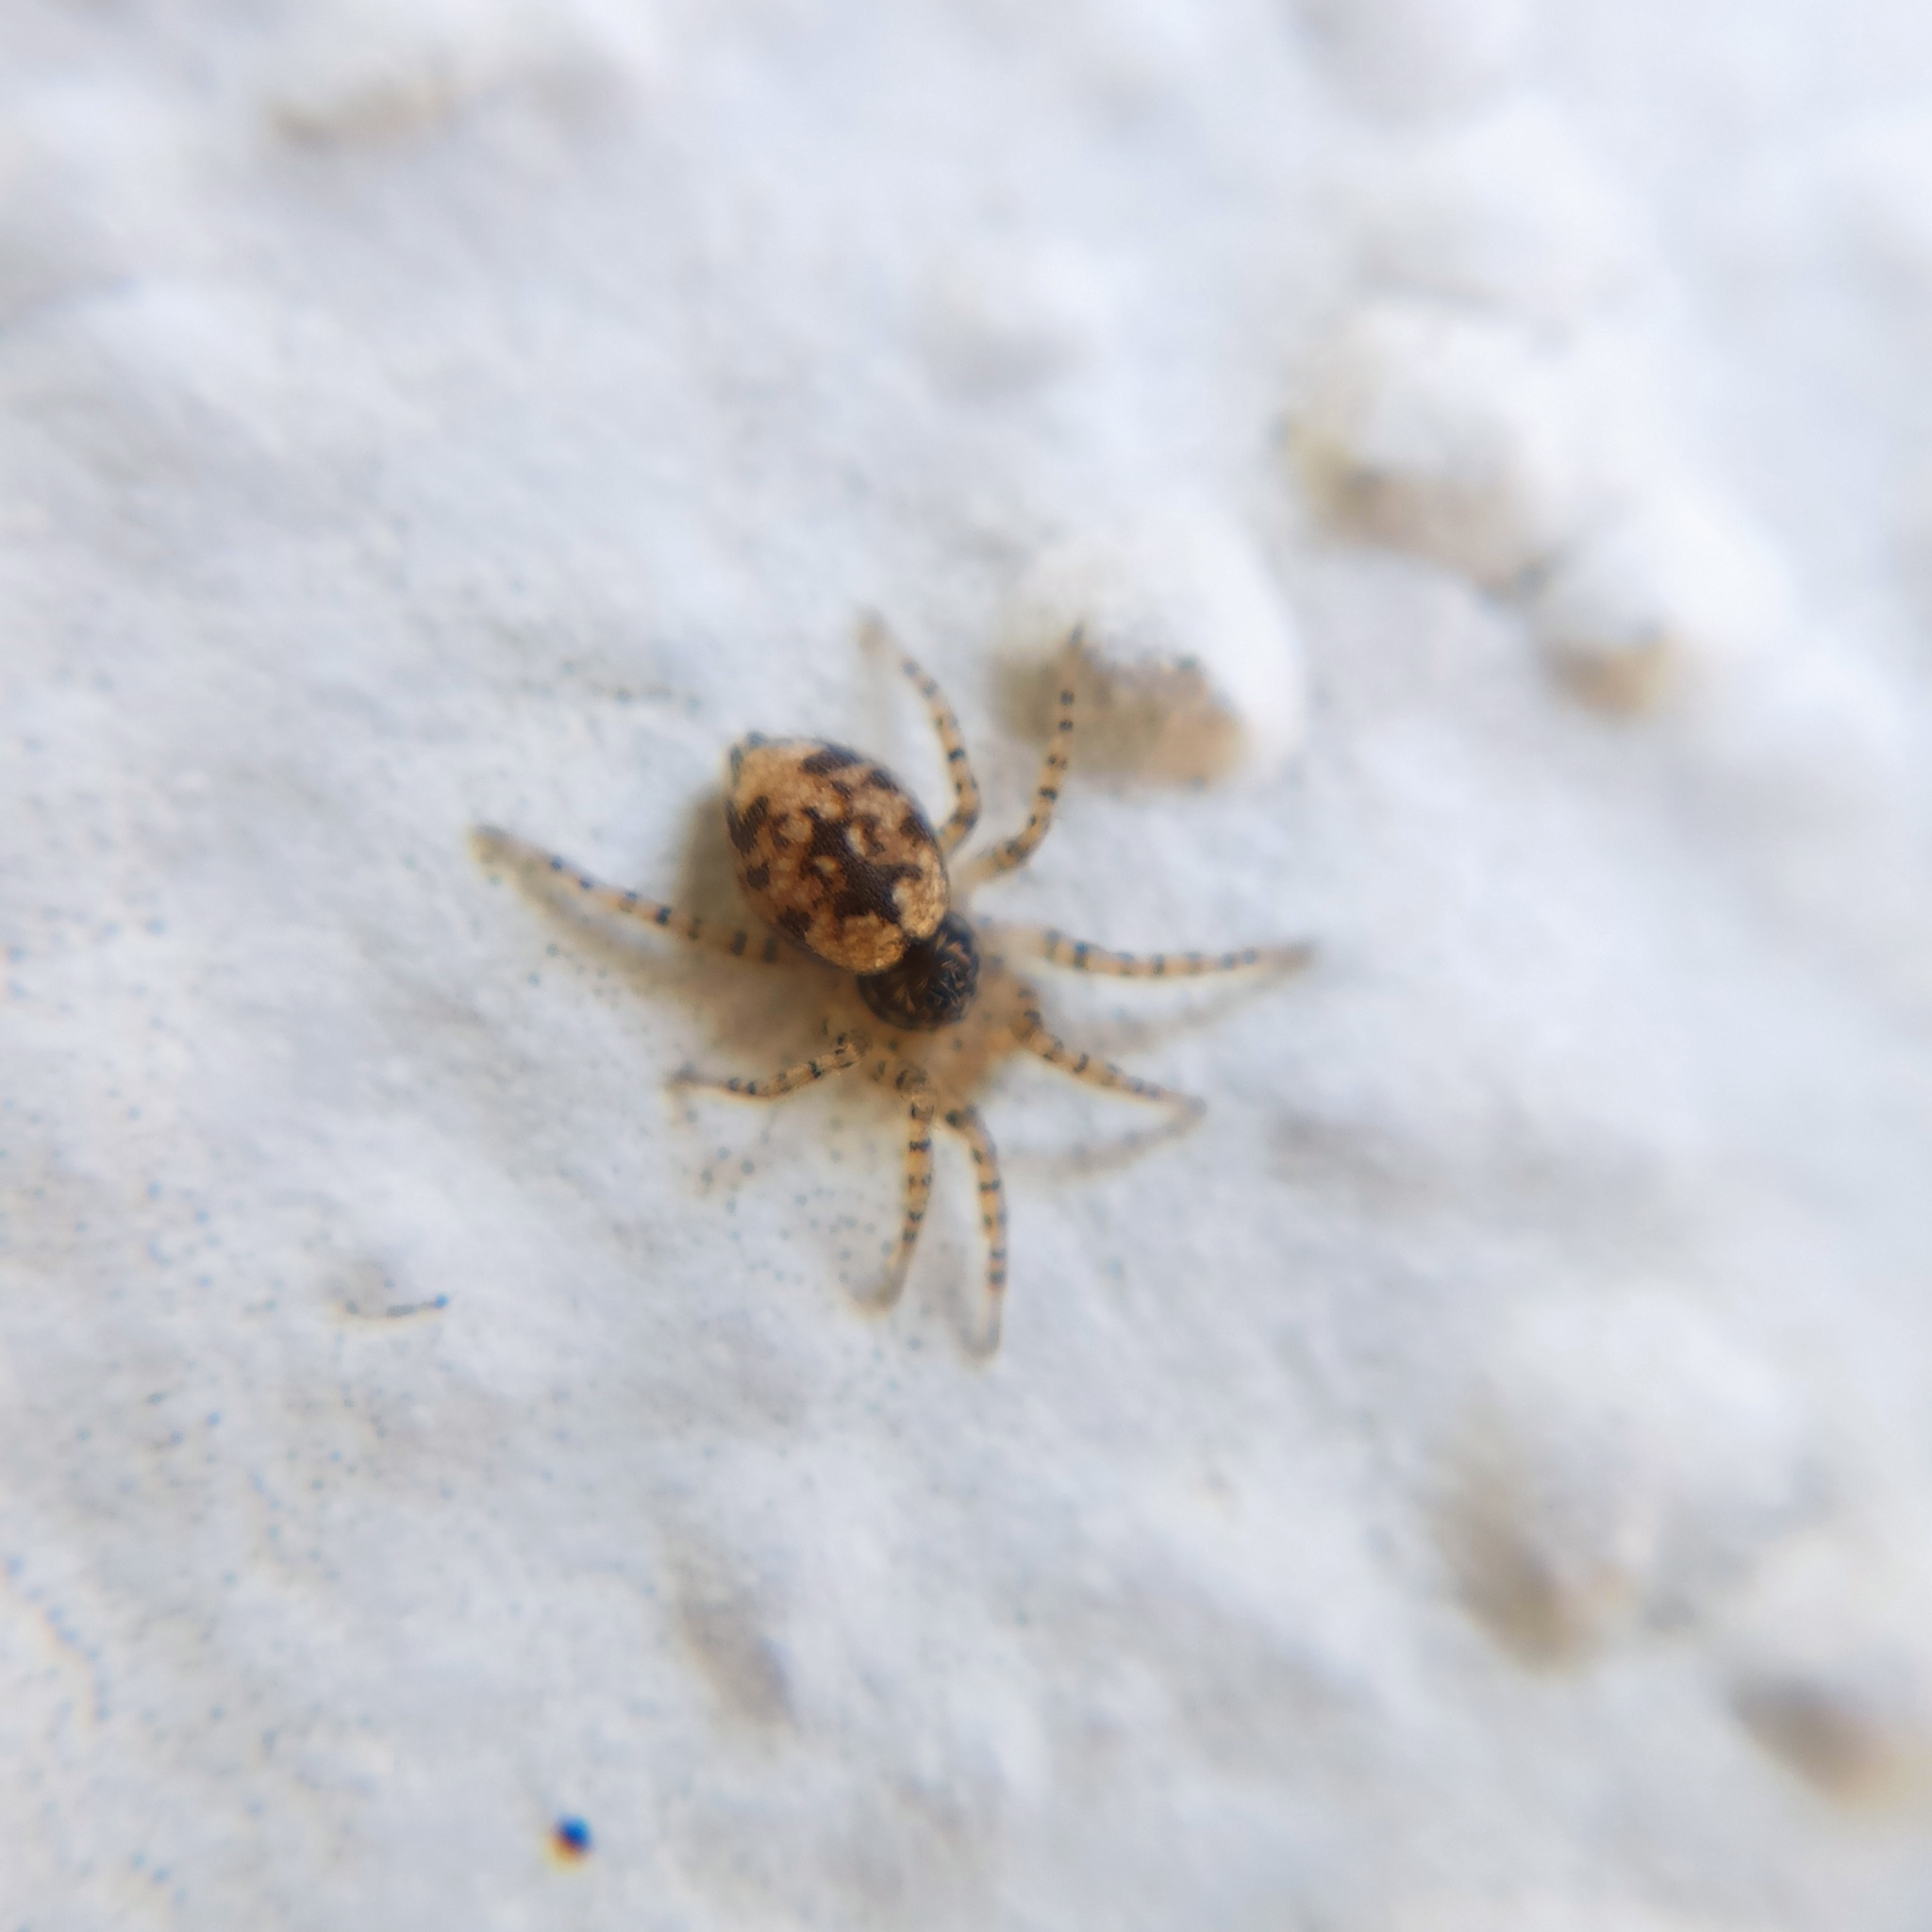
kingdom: Animalia
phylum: Arthropoda
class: Arachnida
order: Araneae
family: Oecobiidae
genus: Oecobius
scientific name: Oecobius maculatus
